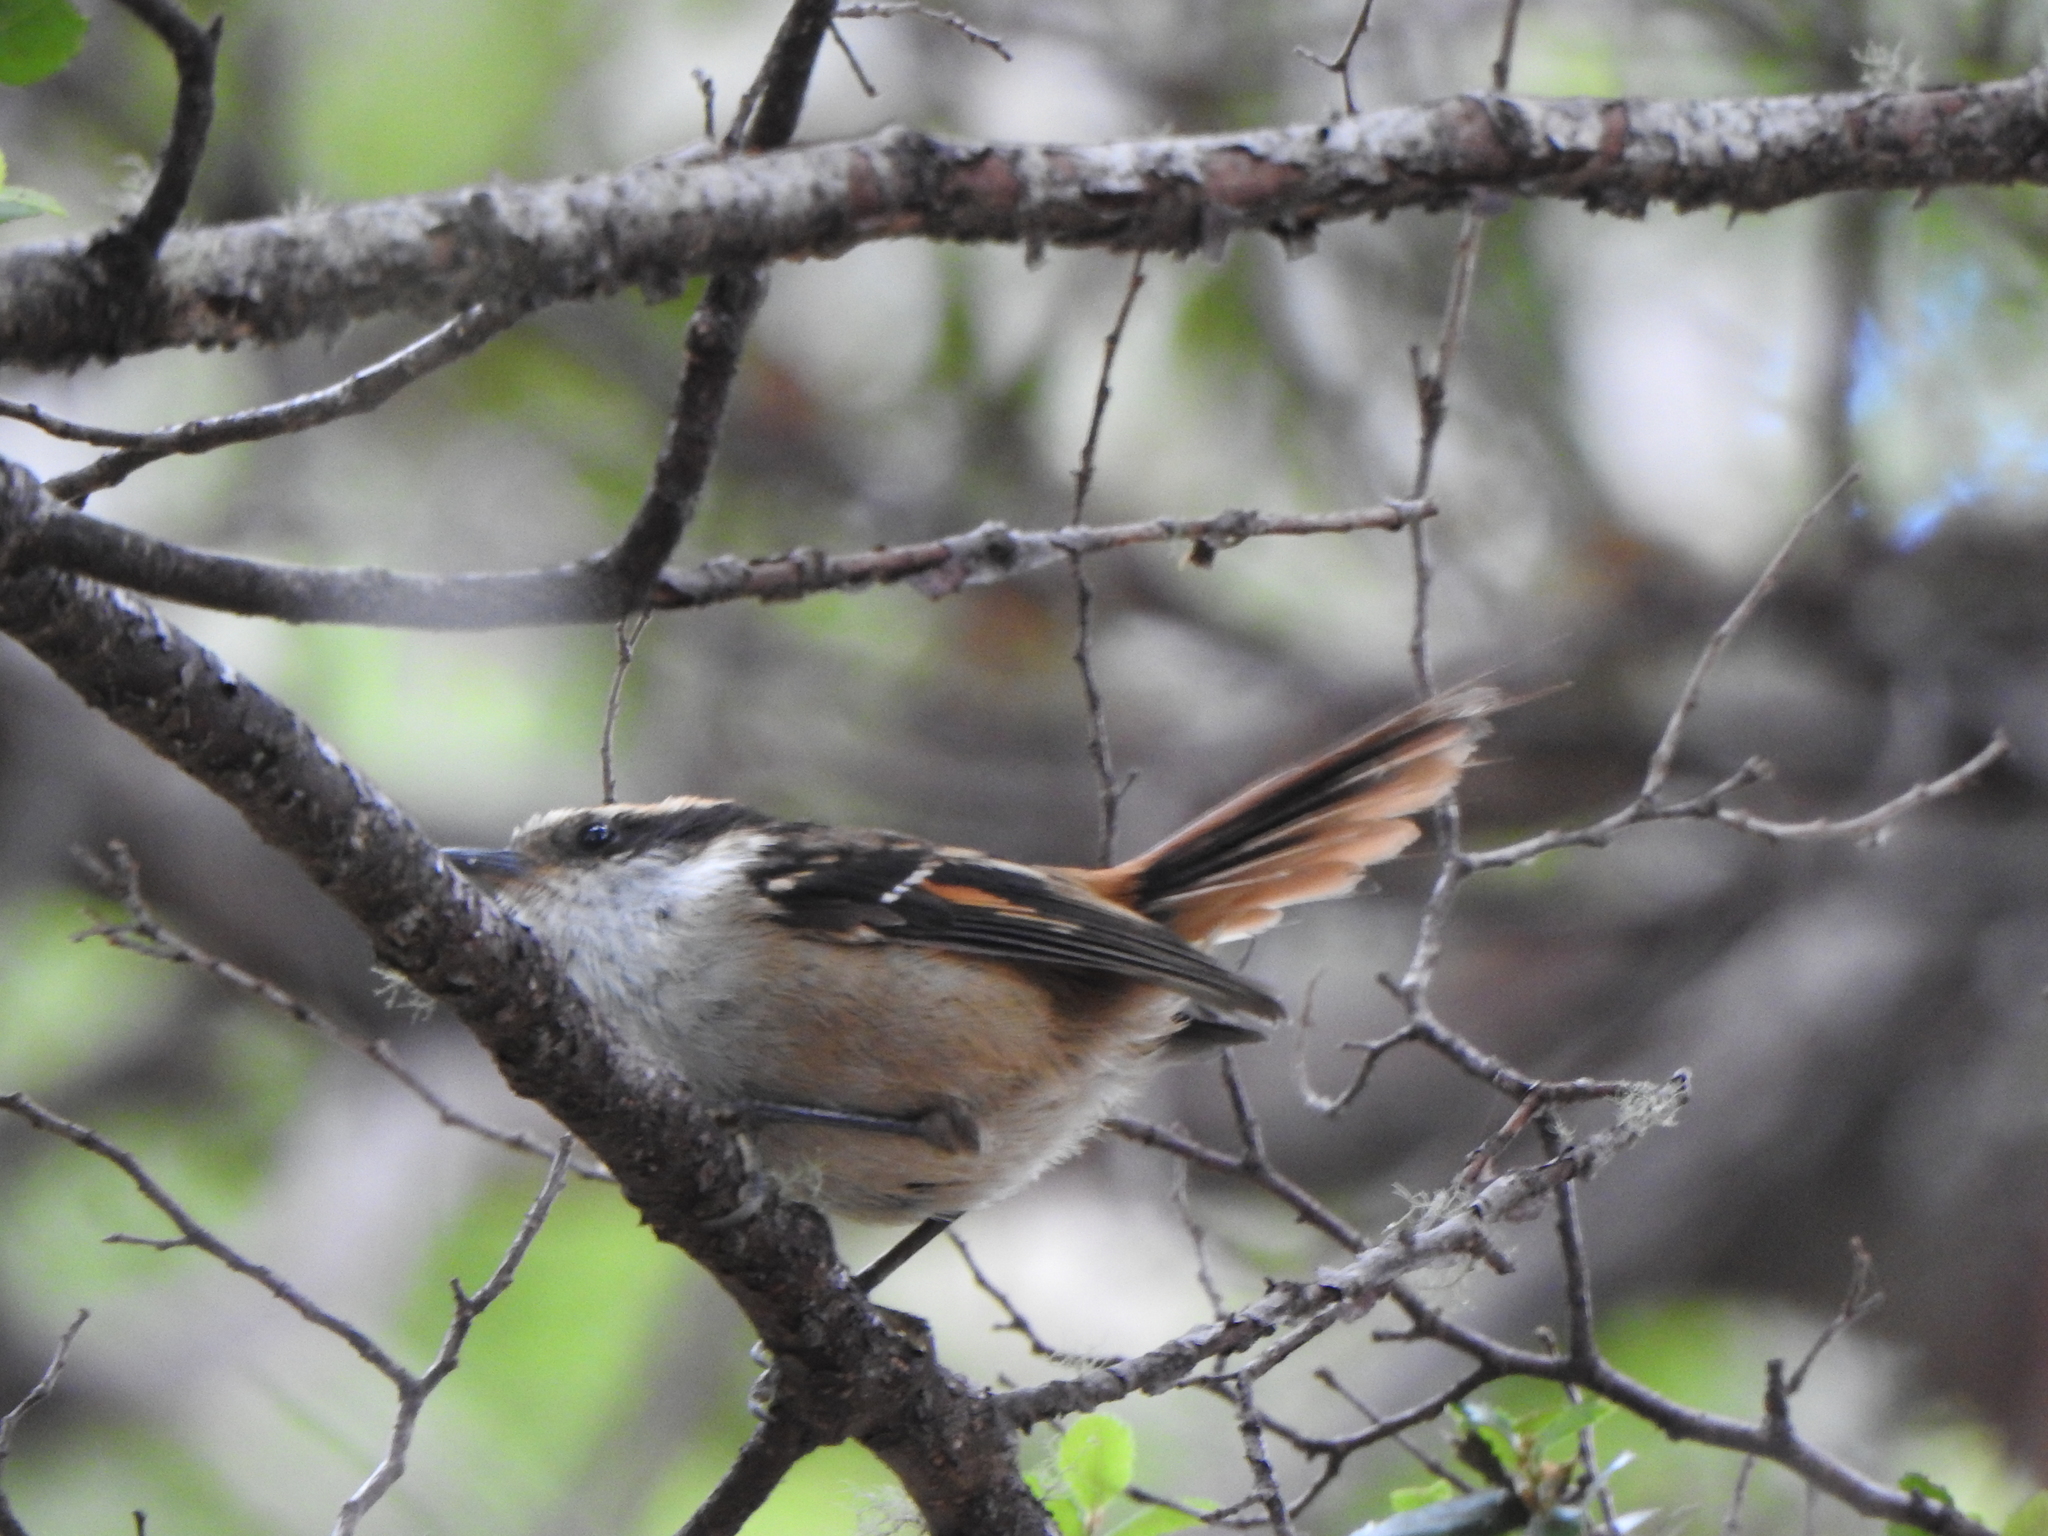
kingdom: Animalia
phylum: Chordata
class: Aves
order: Passeriformes
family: Furnariidae
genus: Aphrastura
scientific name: Aphrastura spinicauda
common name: Thorn-tailed rayadito
